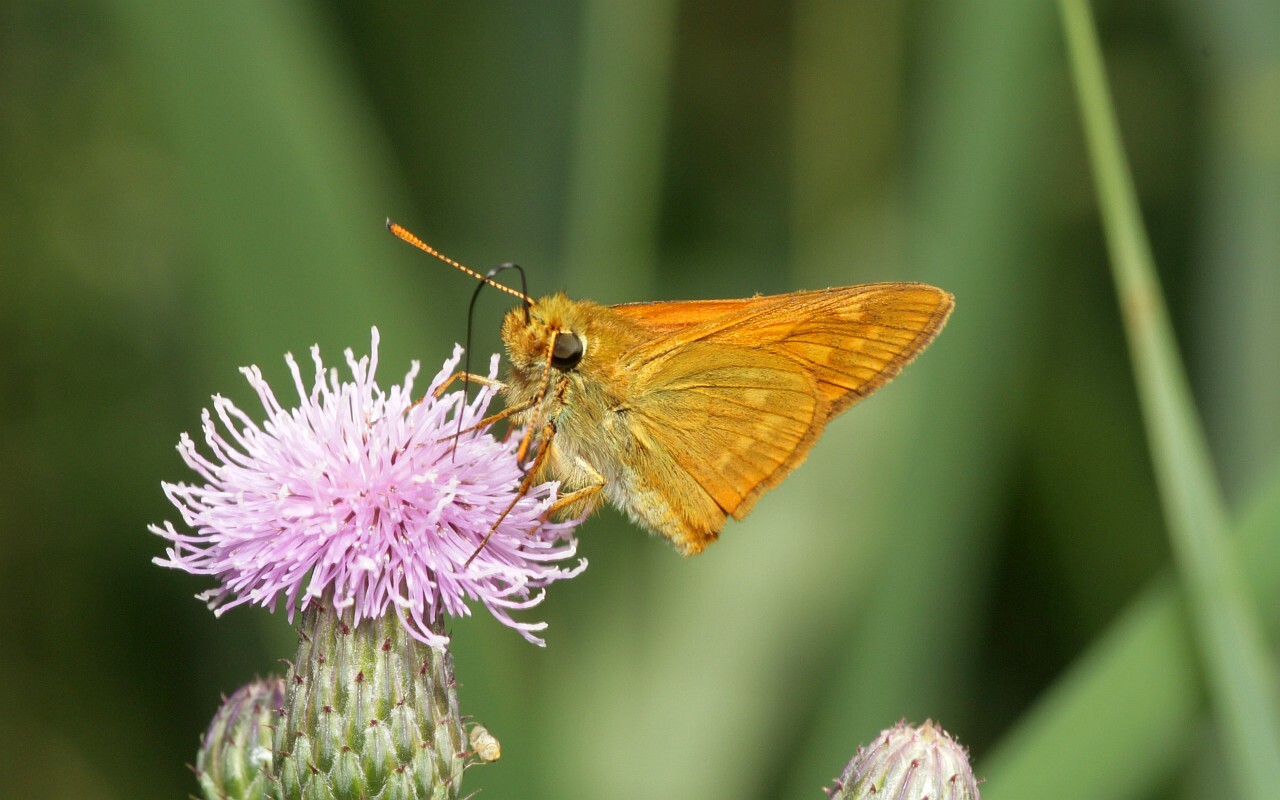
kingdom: Animalia
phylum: Arthropoda
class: Insecta
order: Lepidoptera
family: Hesperiidae
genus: Ochlodes
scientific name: Ochlodes venata
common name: Large skipper
